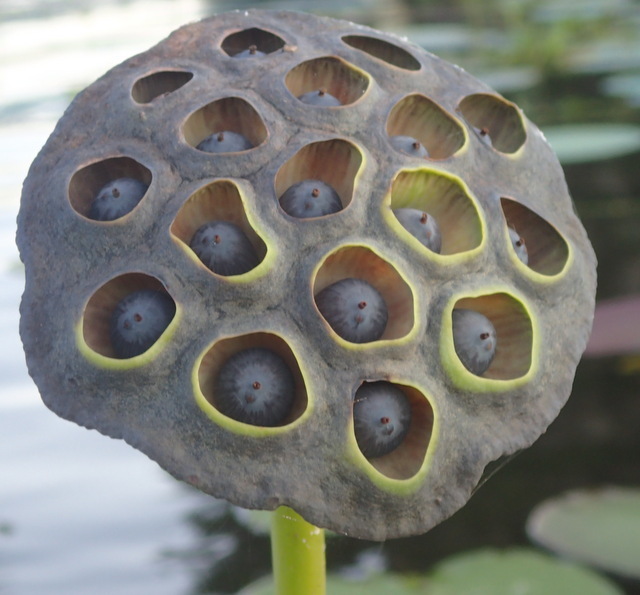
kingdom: Plantae
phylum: Tracheophyta
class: Magnoliopsida
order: Proteales
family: Nelumbonaceae
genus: Nelumbo
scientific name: Nelumbo lutea
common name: American lotus
